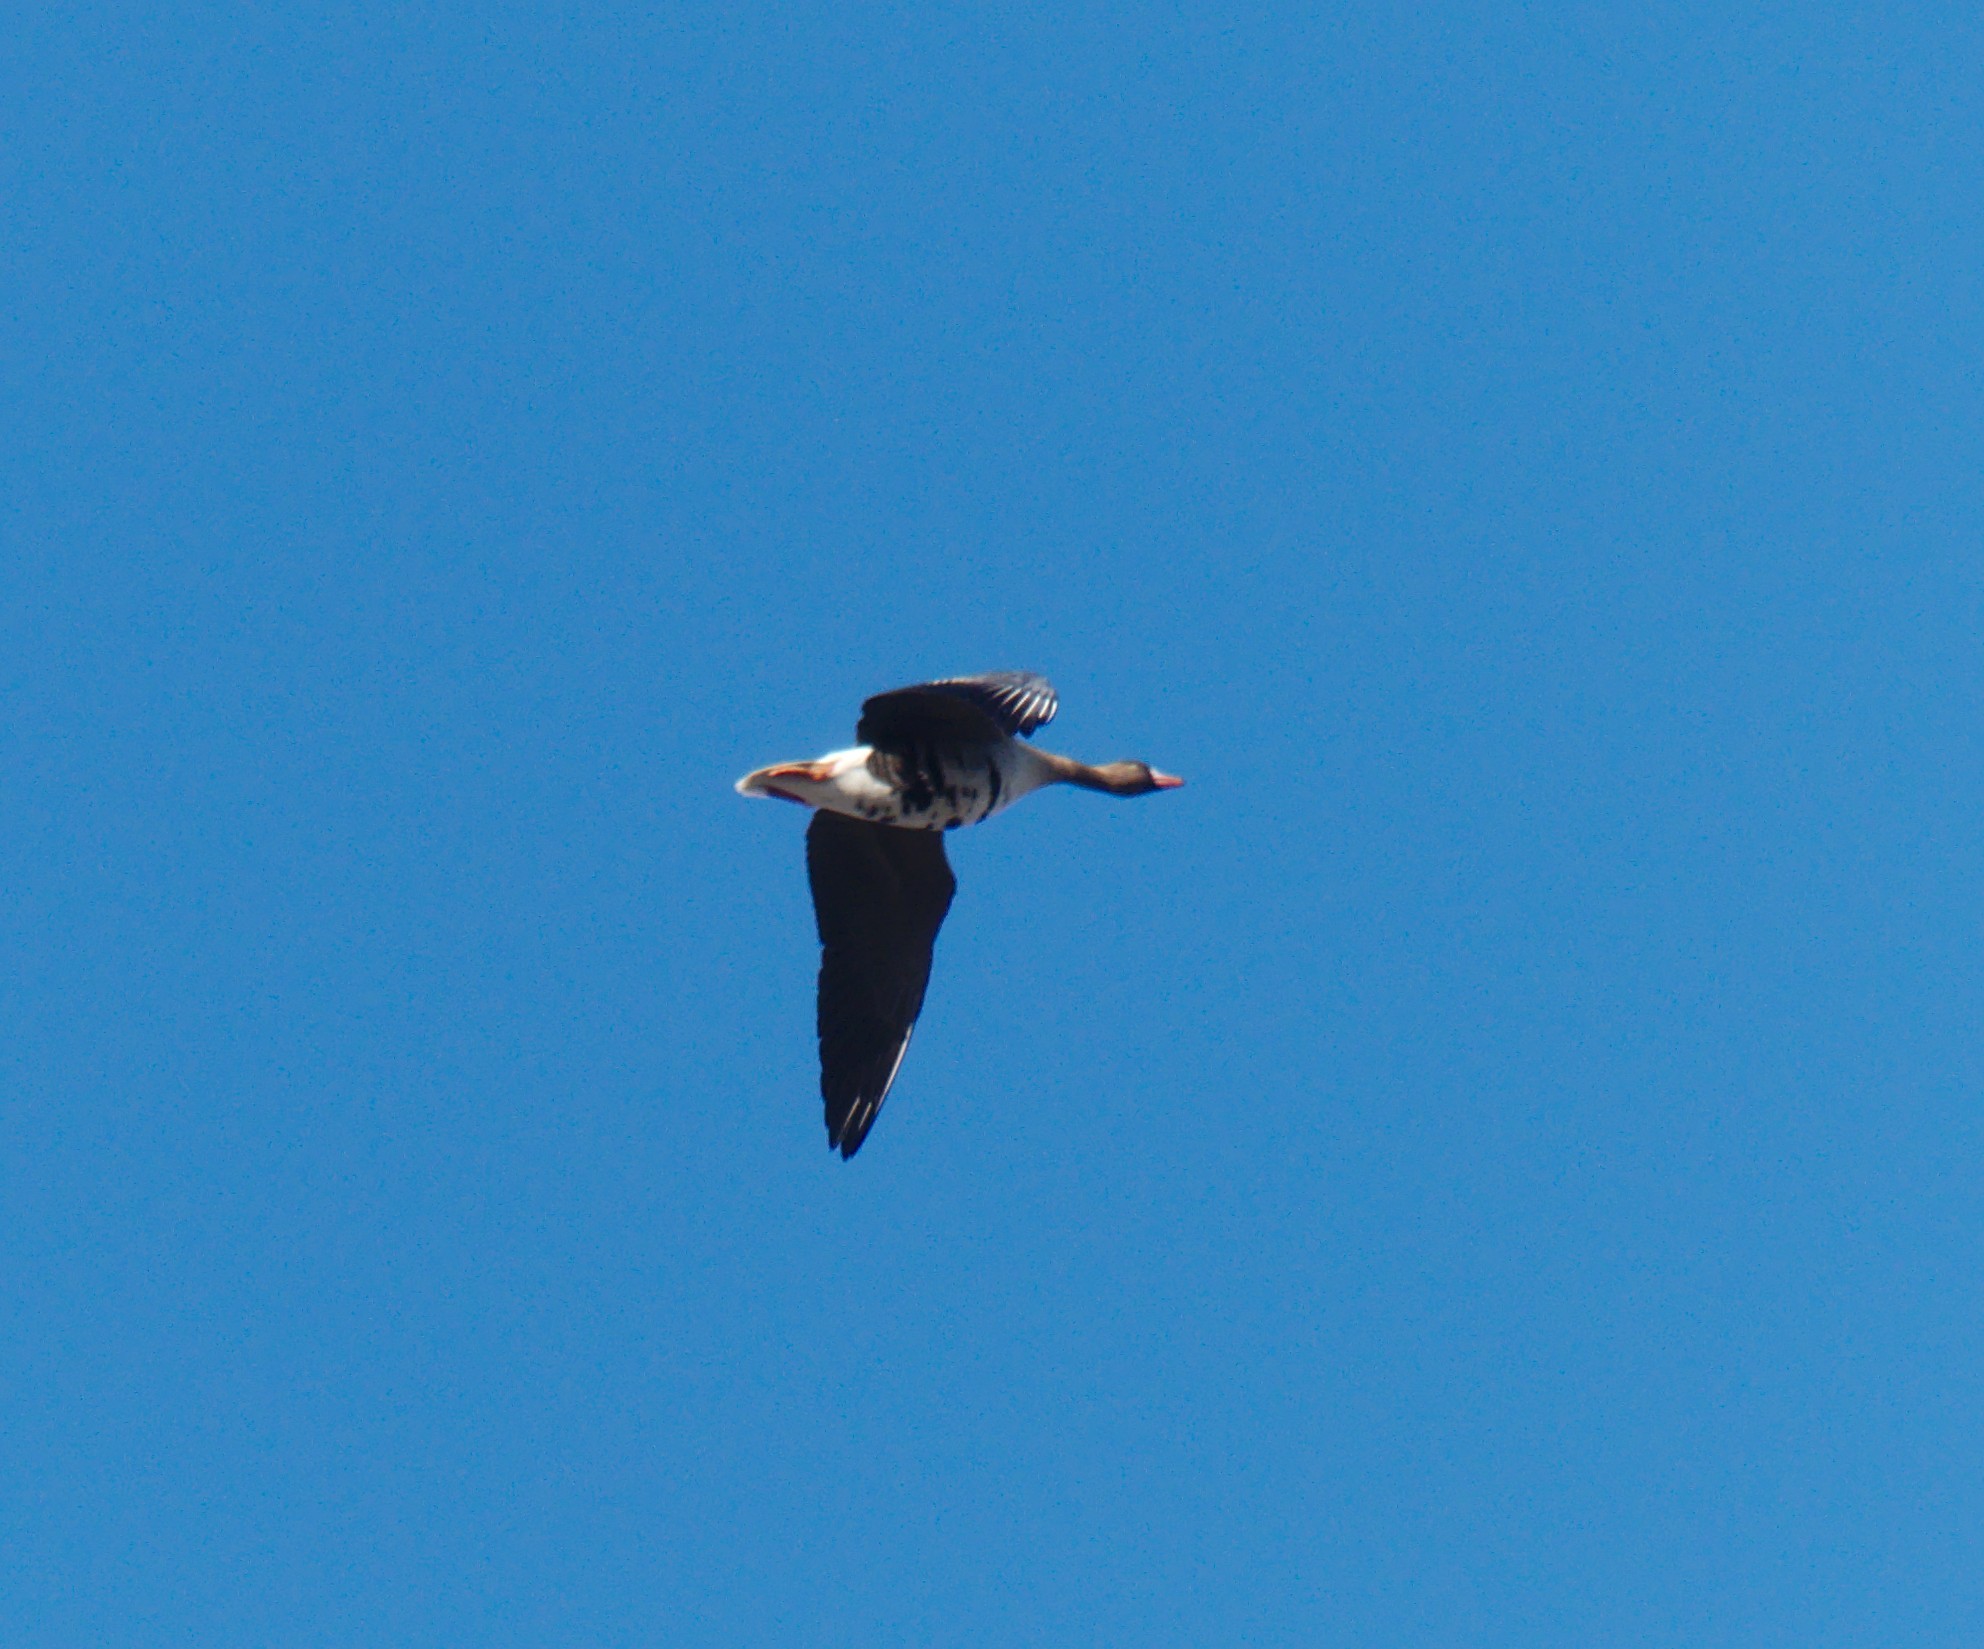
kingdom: Animalia
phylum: Chordata
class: Aves
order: Anseriformes
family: Anatidae
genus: Anser
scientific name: Anser albifrons
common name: Greater white-fronted goose
